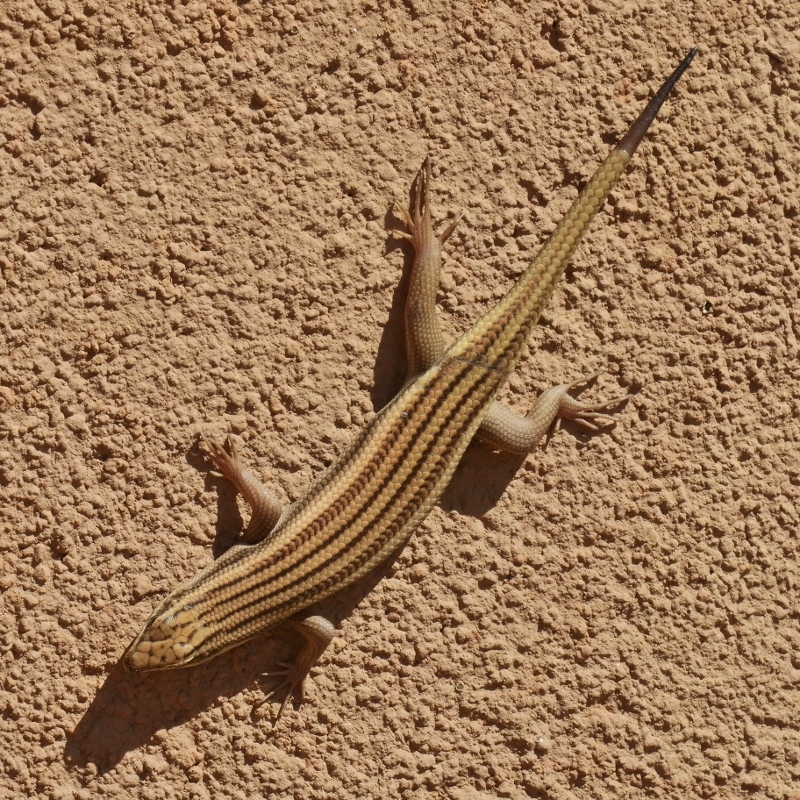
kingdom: Animalia
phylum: Chordata
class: Squamata
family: Scincidae
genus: Trachylepis
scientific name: Trachylepis sulcata
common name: Western rock skink
